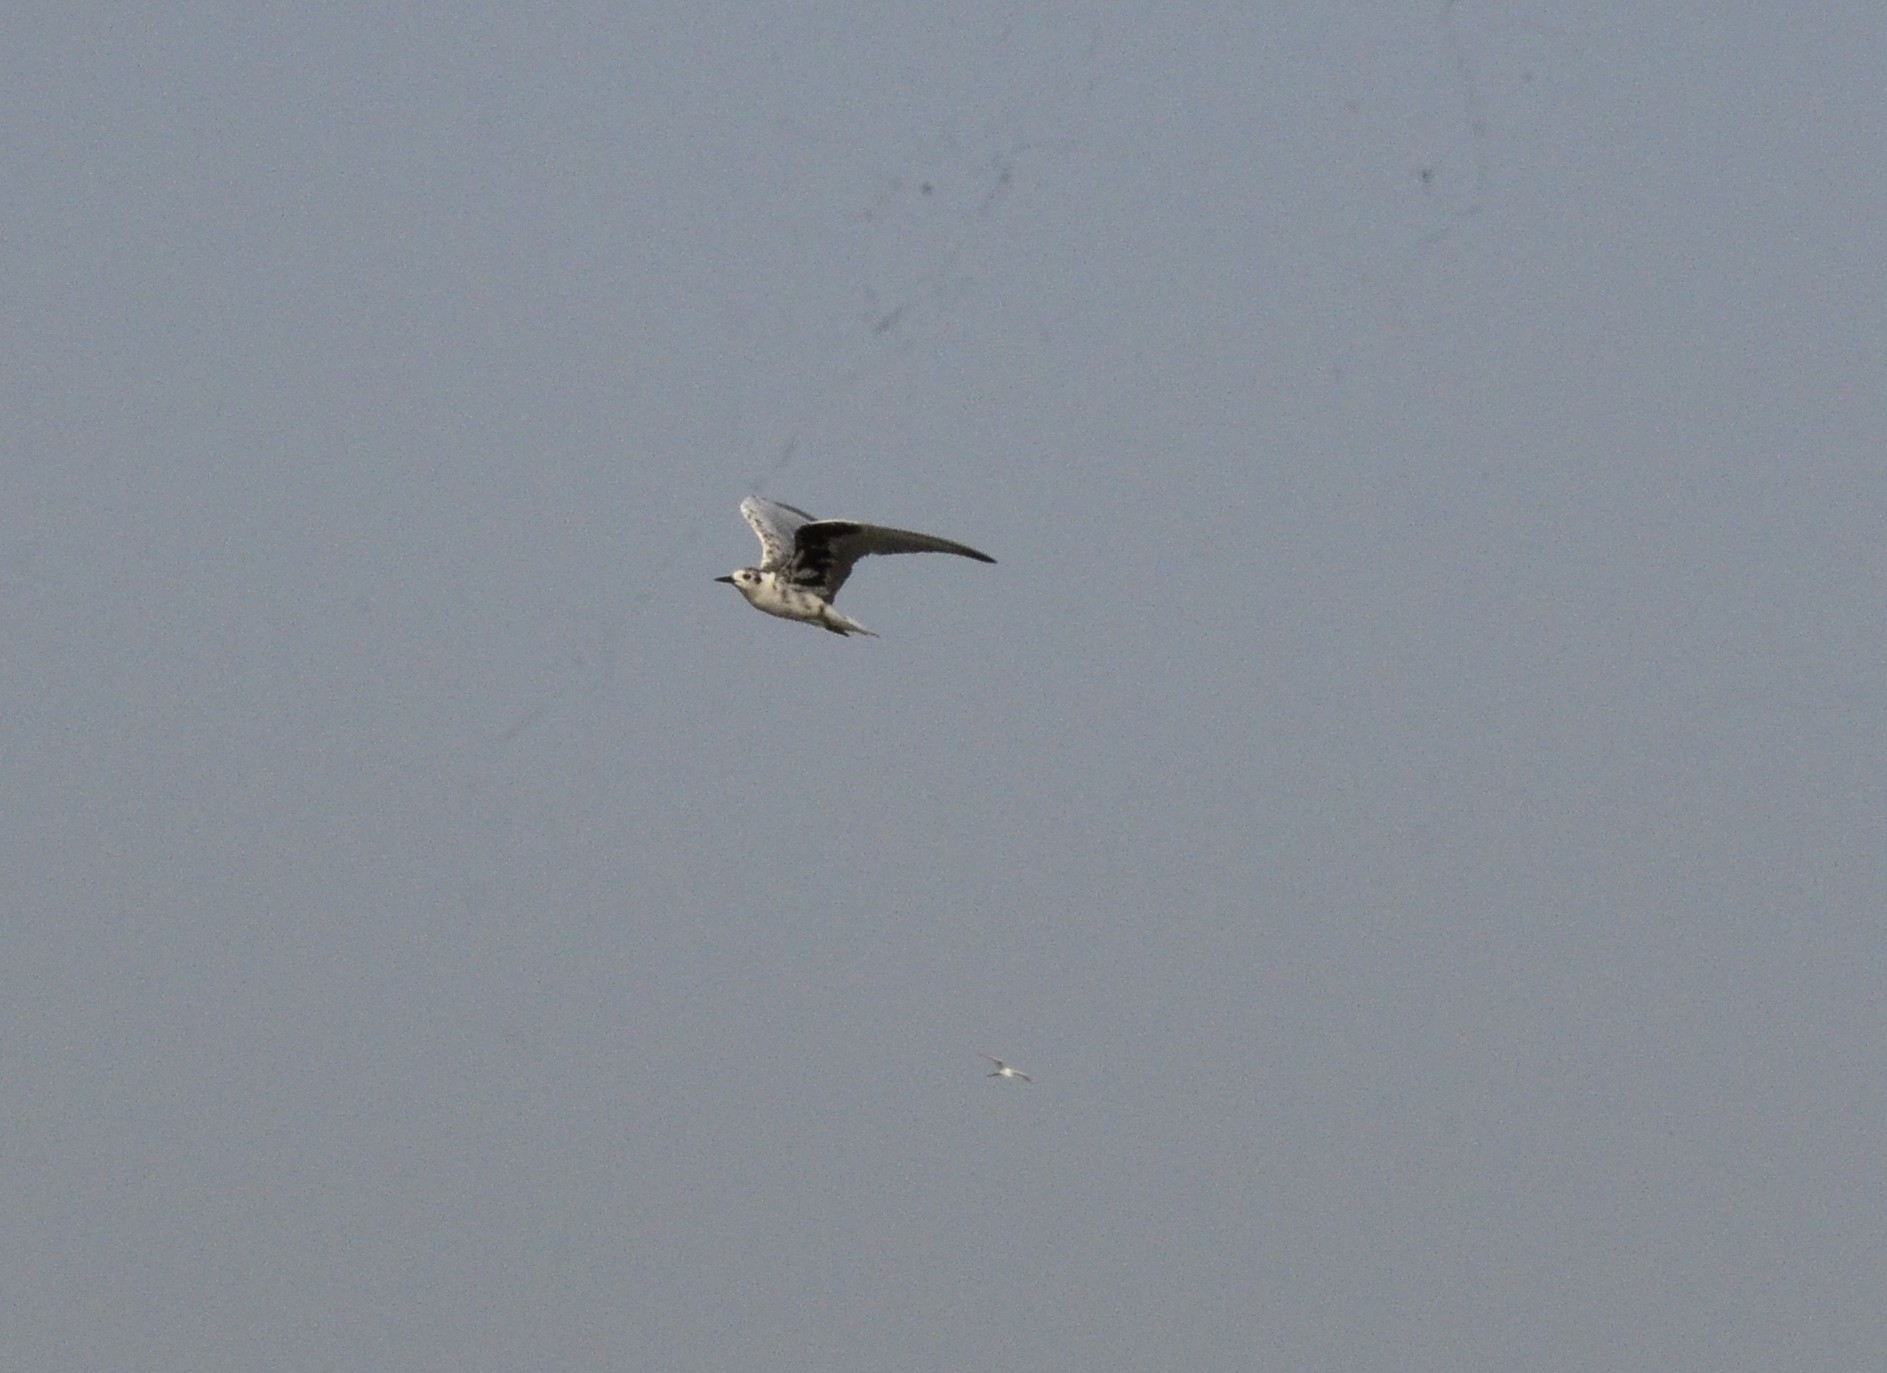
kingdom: Animalia
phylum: Chordata
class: Aves
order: Charadriiformes
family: Laridae
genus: Chlidonias
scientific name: Chlidonias leucopterus
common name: White-winged tern
